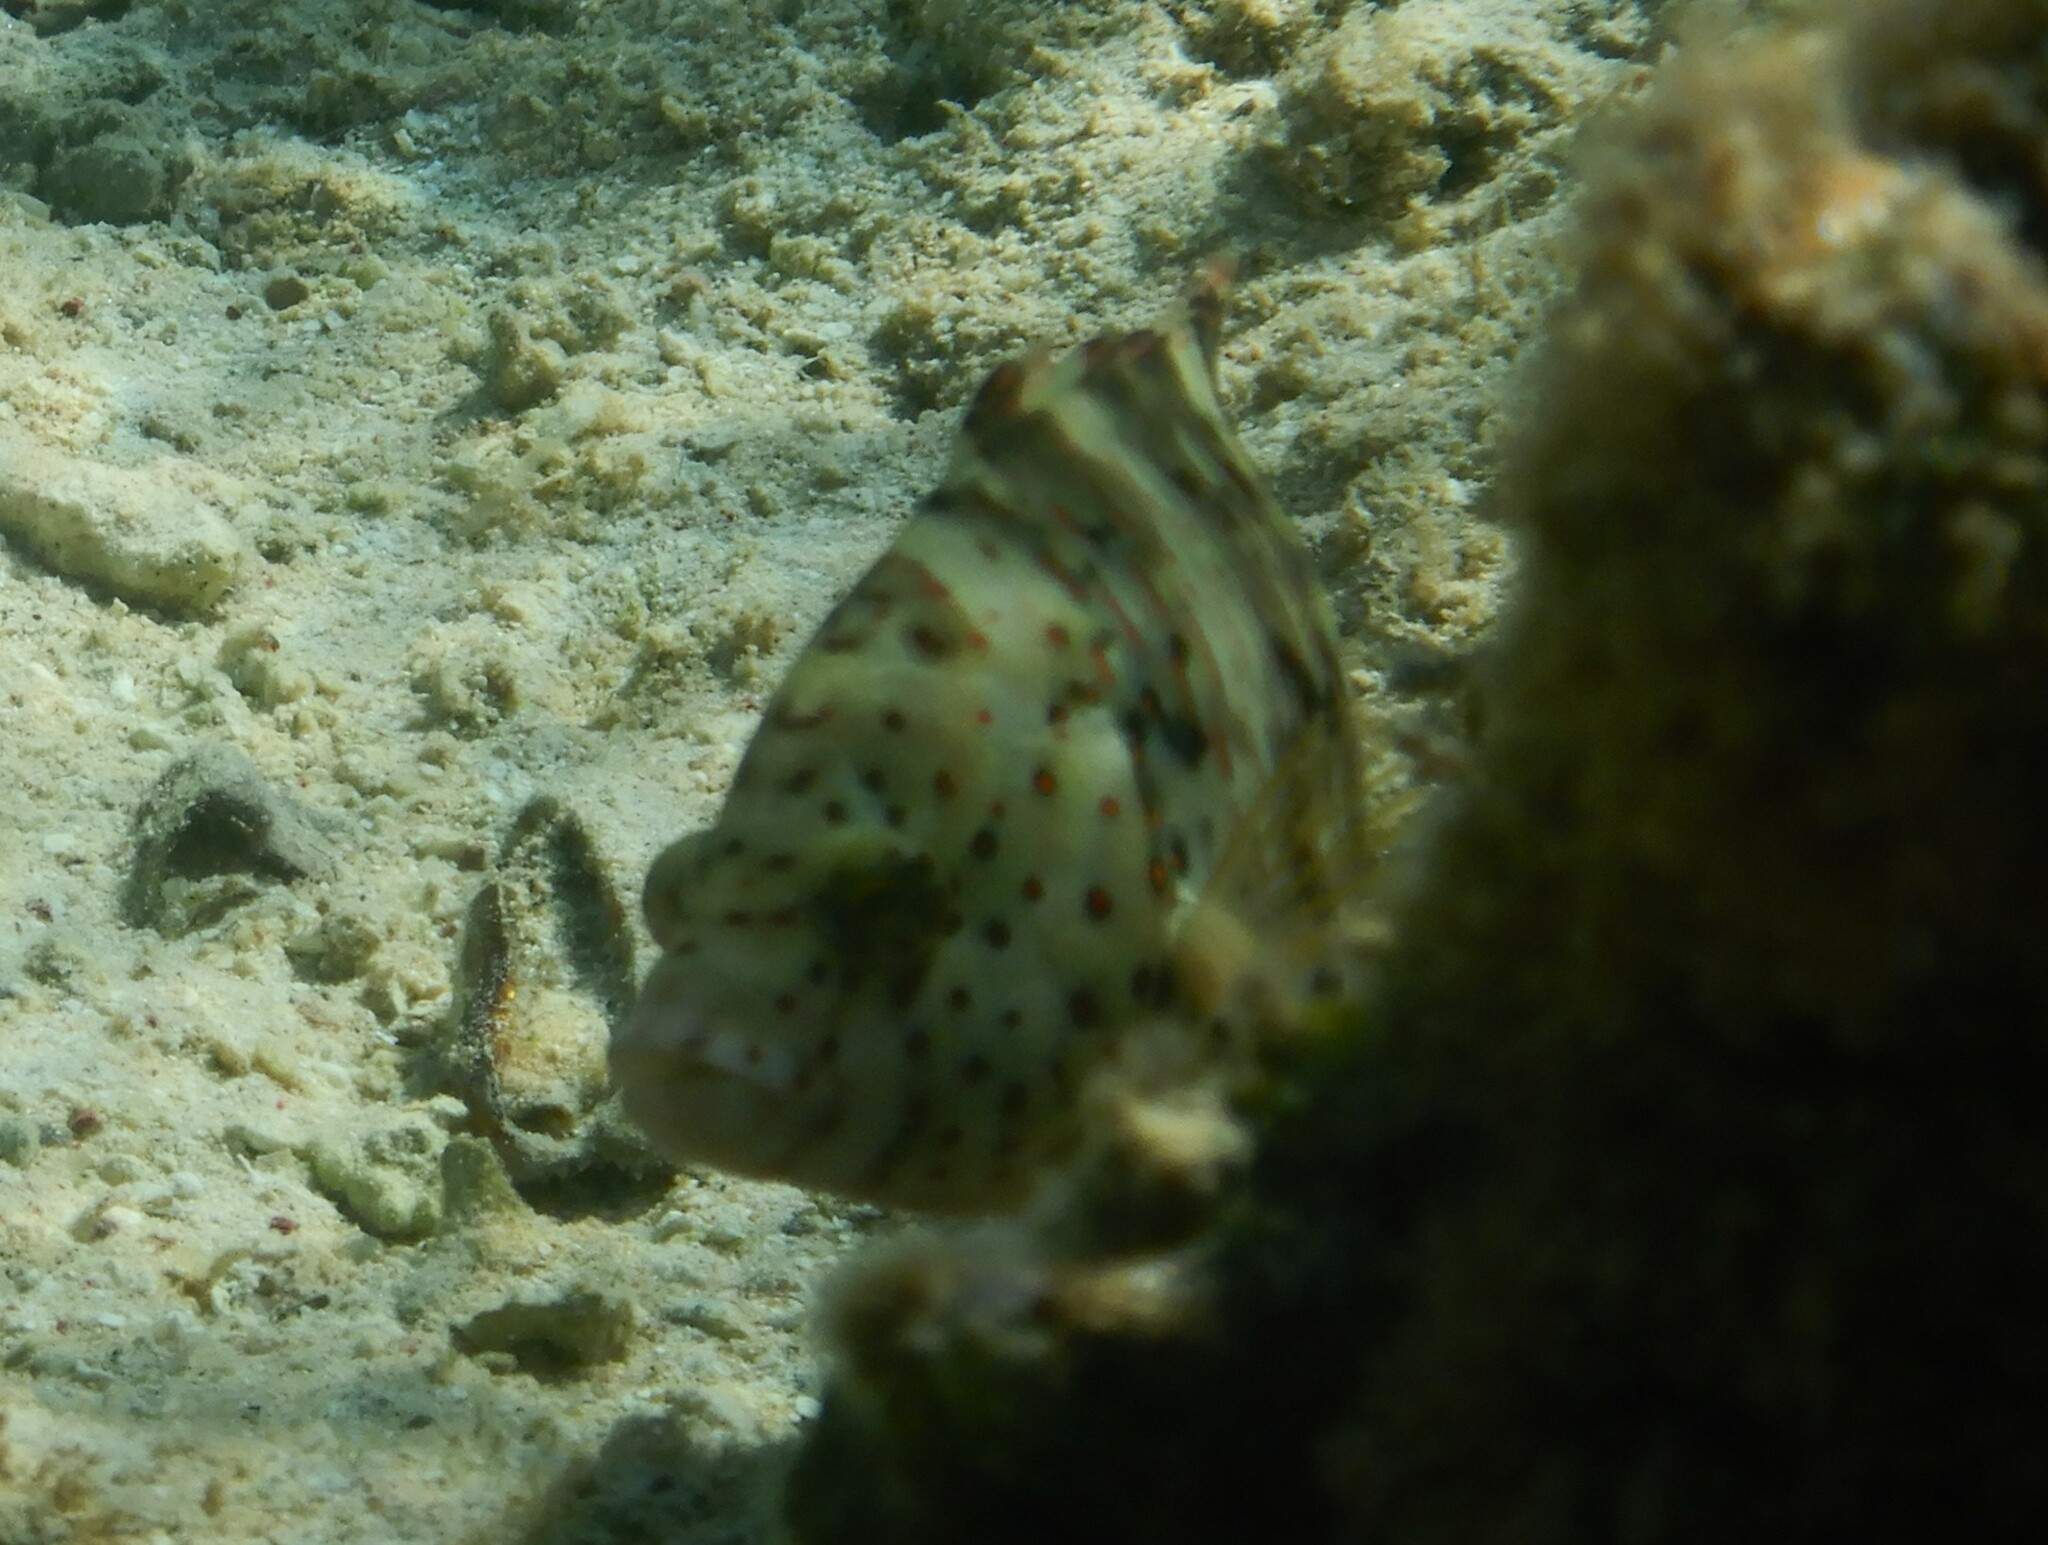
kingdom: Animalia
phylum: Chordata
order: Perciformes
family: Labridae
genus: Cheilinus
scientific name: Cheilinus lunulatus
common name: Broomtail wrasse
